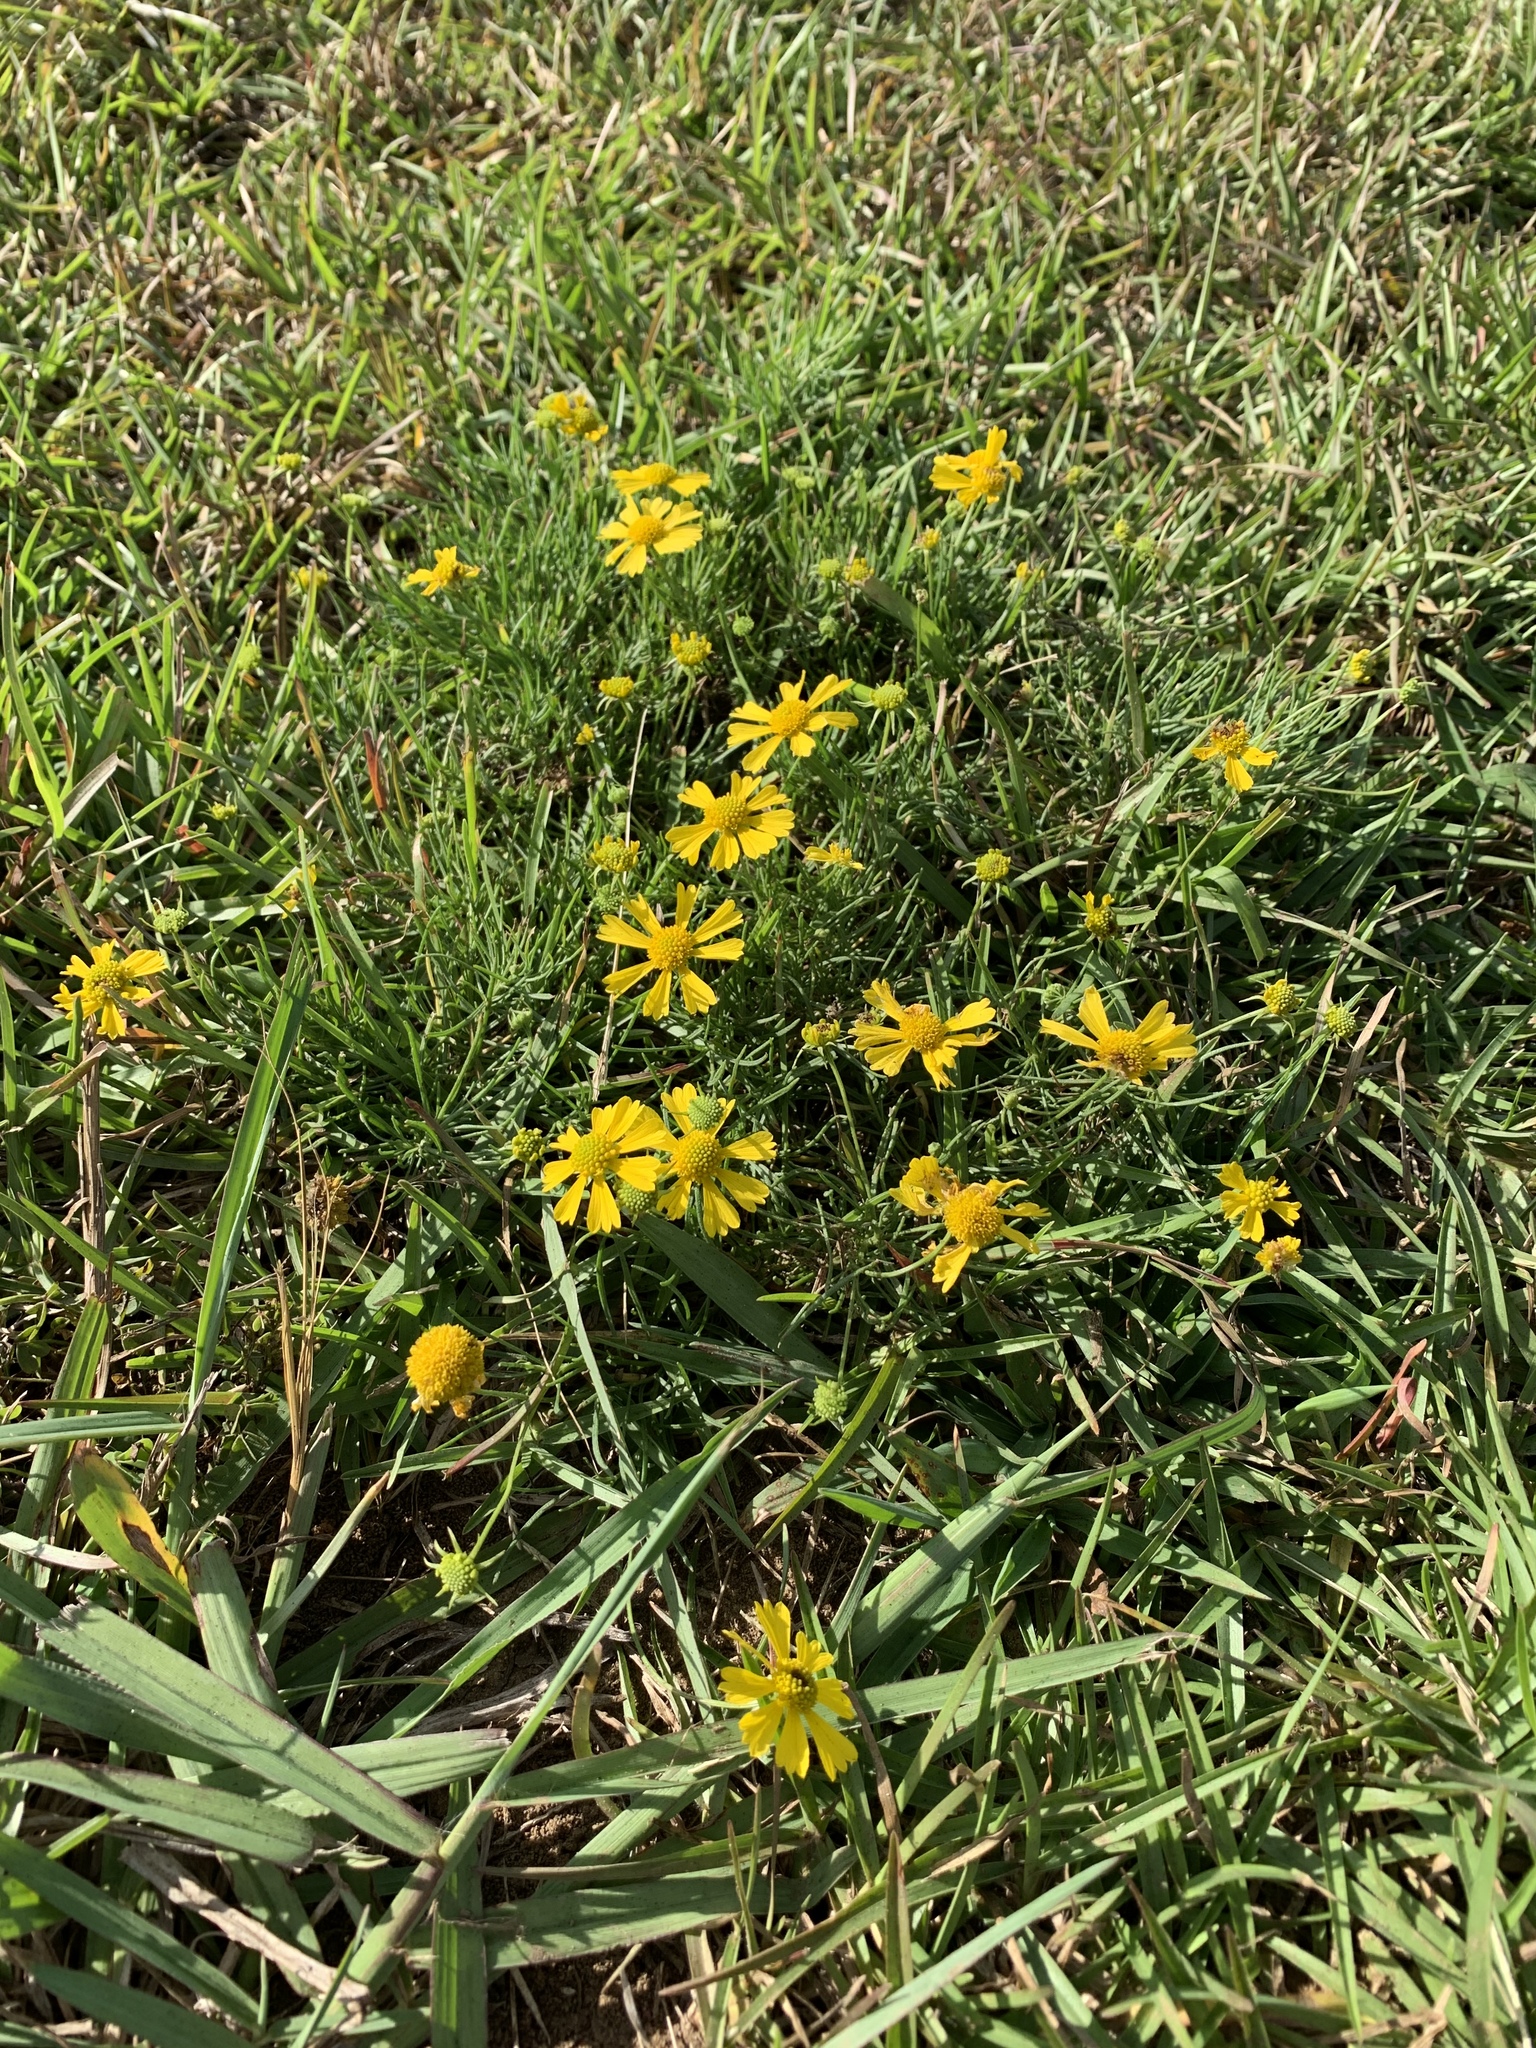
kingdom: Plantae
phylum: Tracheophyta
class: Magnoliopsida
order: Asterales
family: Asteraceae
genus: Helenium
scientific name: Helenium amarum
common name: Bitter sneezeweed
